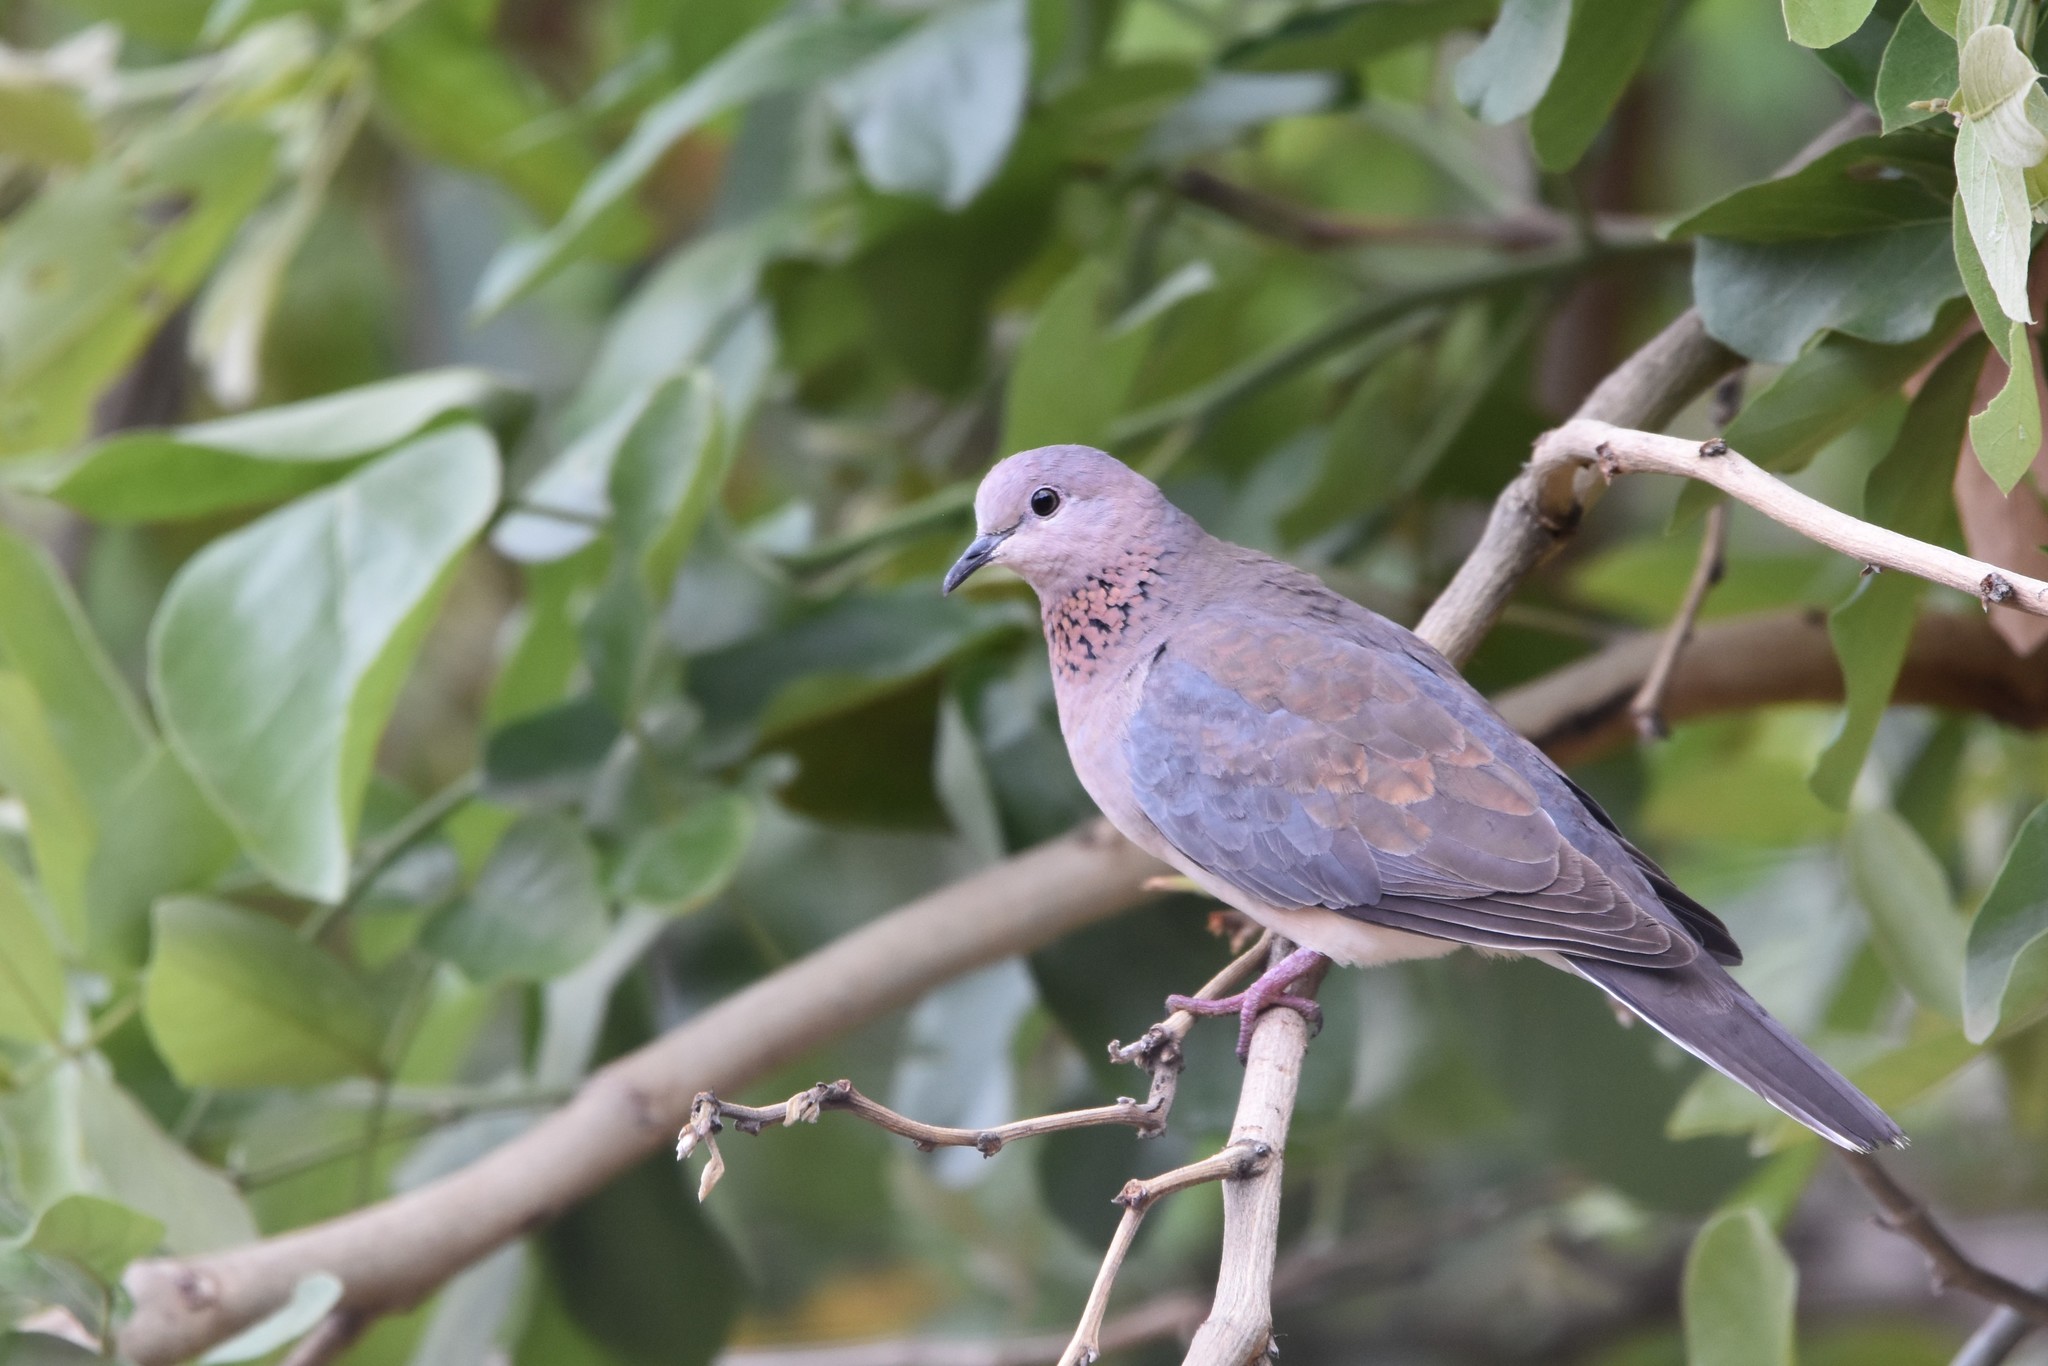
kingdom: Animalia
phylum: Chordata
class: Aves
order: Columbiformes
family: Columbidae
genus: Spilopelia
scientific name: Spilopelia senegalensis
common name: Laughing dove
